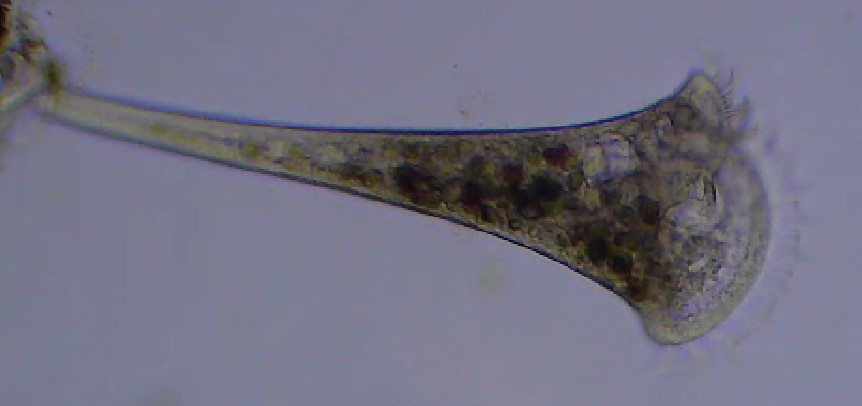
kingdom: Chromista
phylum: Ciliophora
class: Heterotrichea
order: Heterotrichida
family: Stentoridae
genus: Stentor
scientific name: Stentor roeselii
